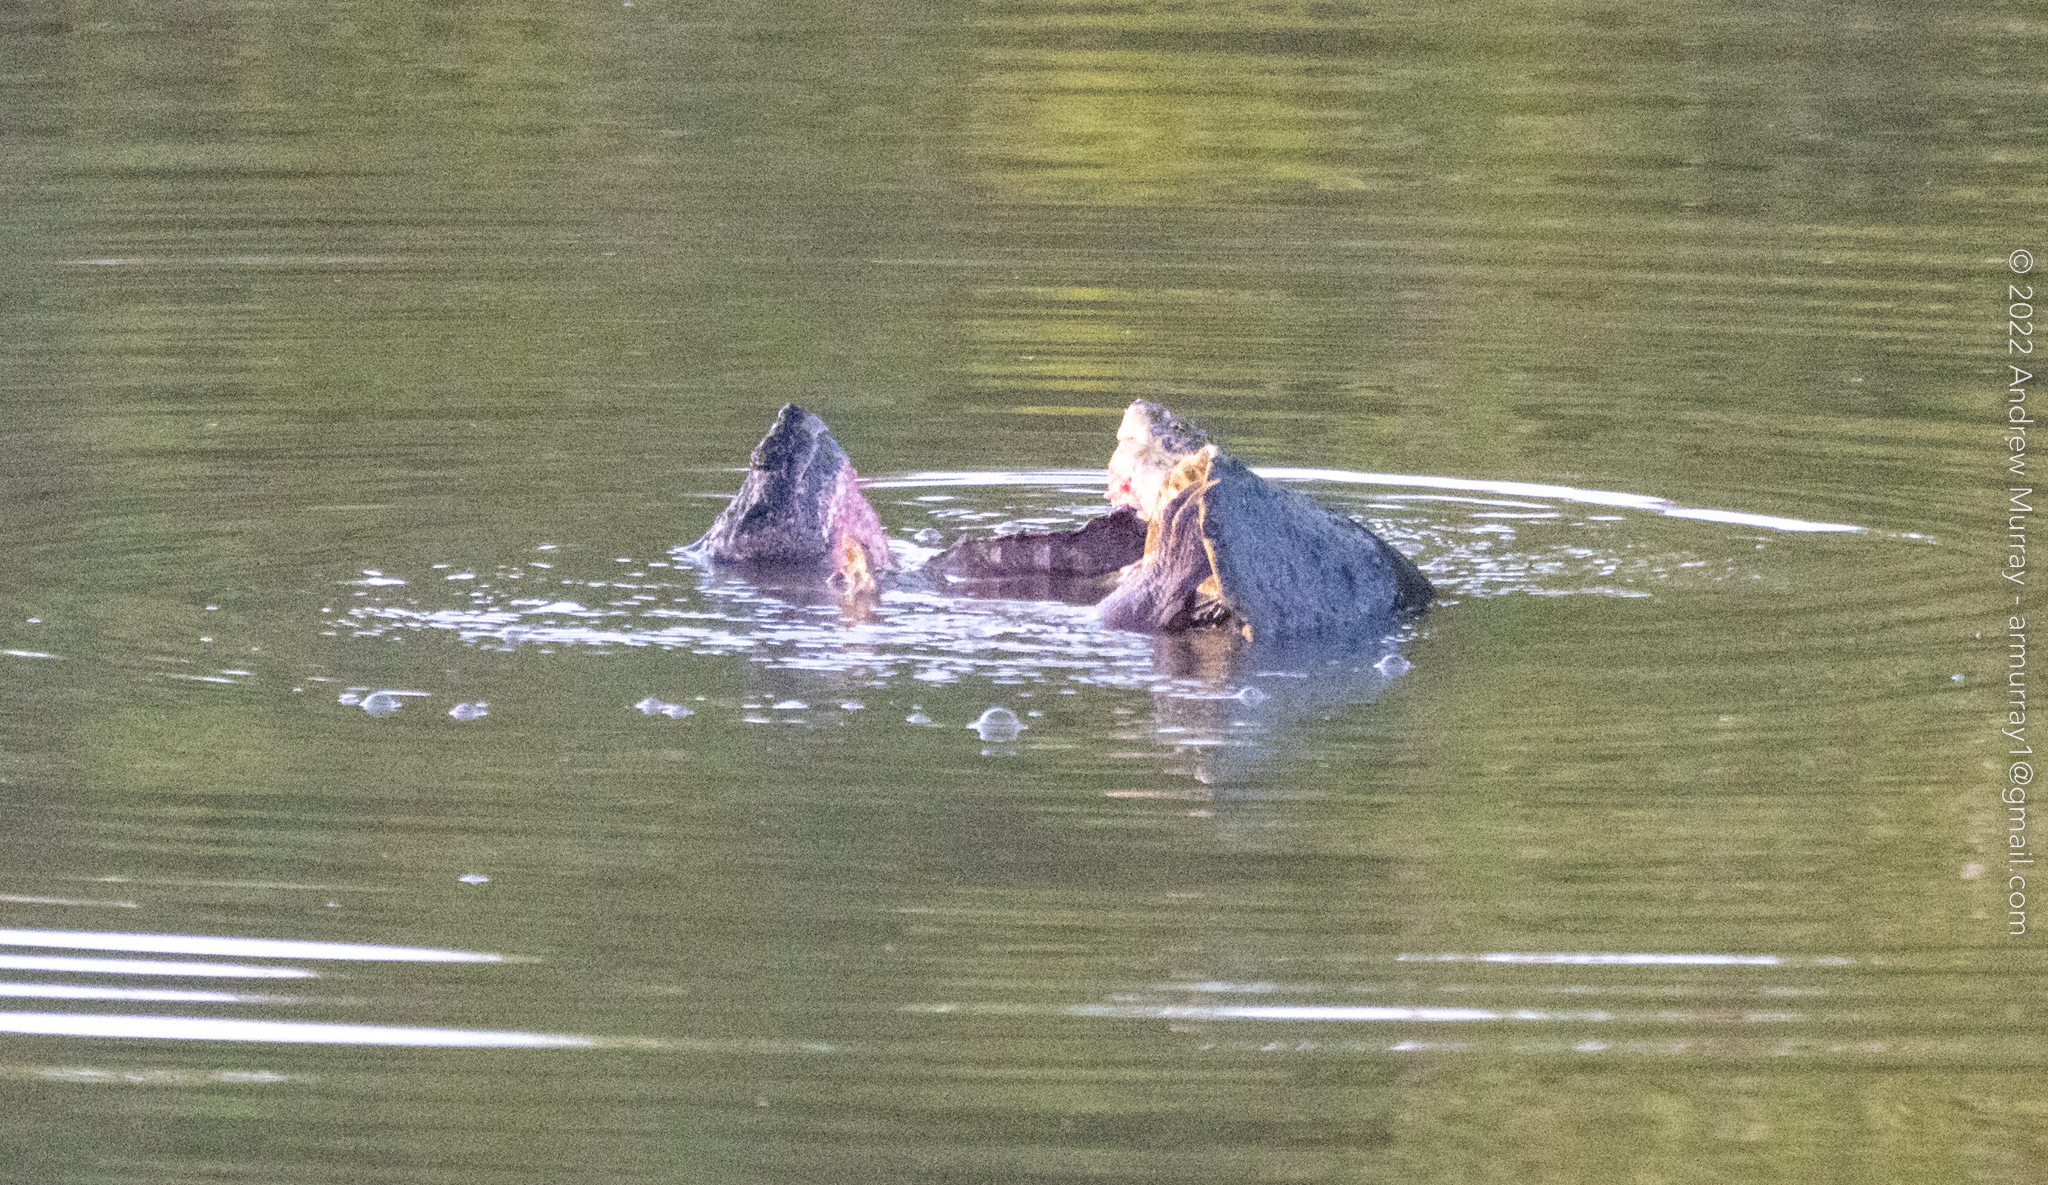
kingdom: Animalia
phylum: Chordata
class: Testudines
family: Chelydridae
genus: Chelydra
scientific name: Chelydra serpentina
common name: Common snapping turtle
